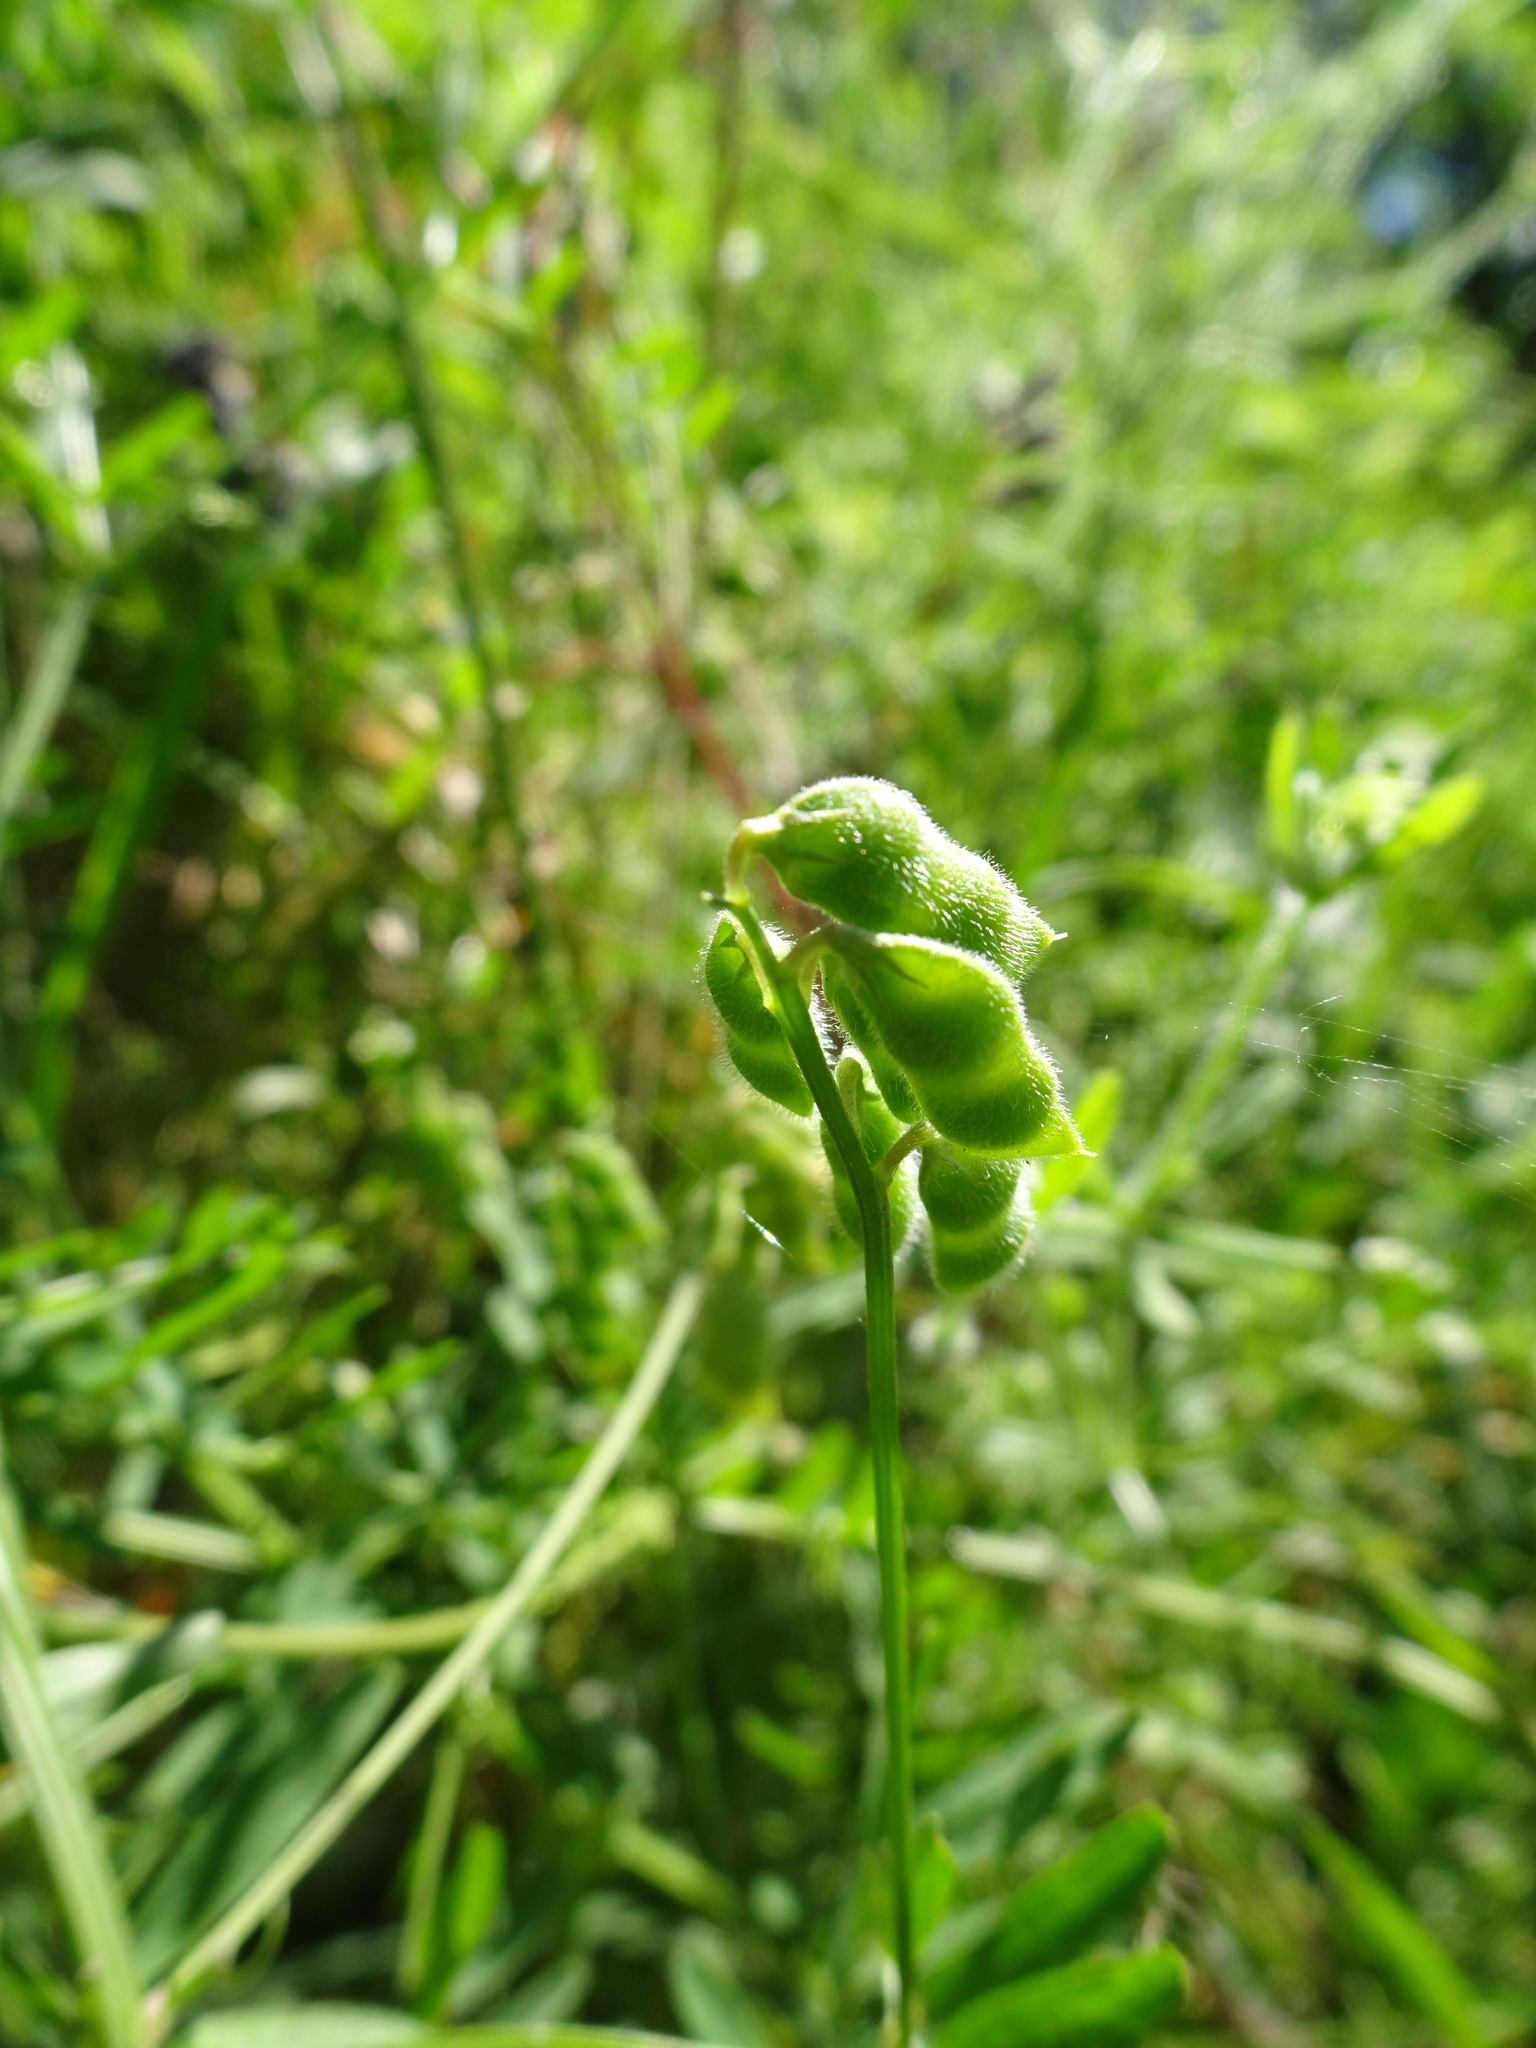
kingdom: Plantae
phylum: Tracheophyta
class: Magnoliopsida
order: Fabales
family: Fabaceae
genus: Vicia
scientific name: Vicia hirsuta
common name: Tiny vetch
